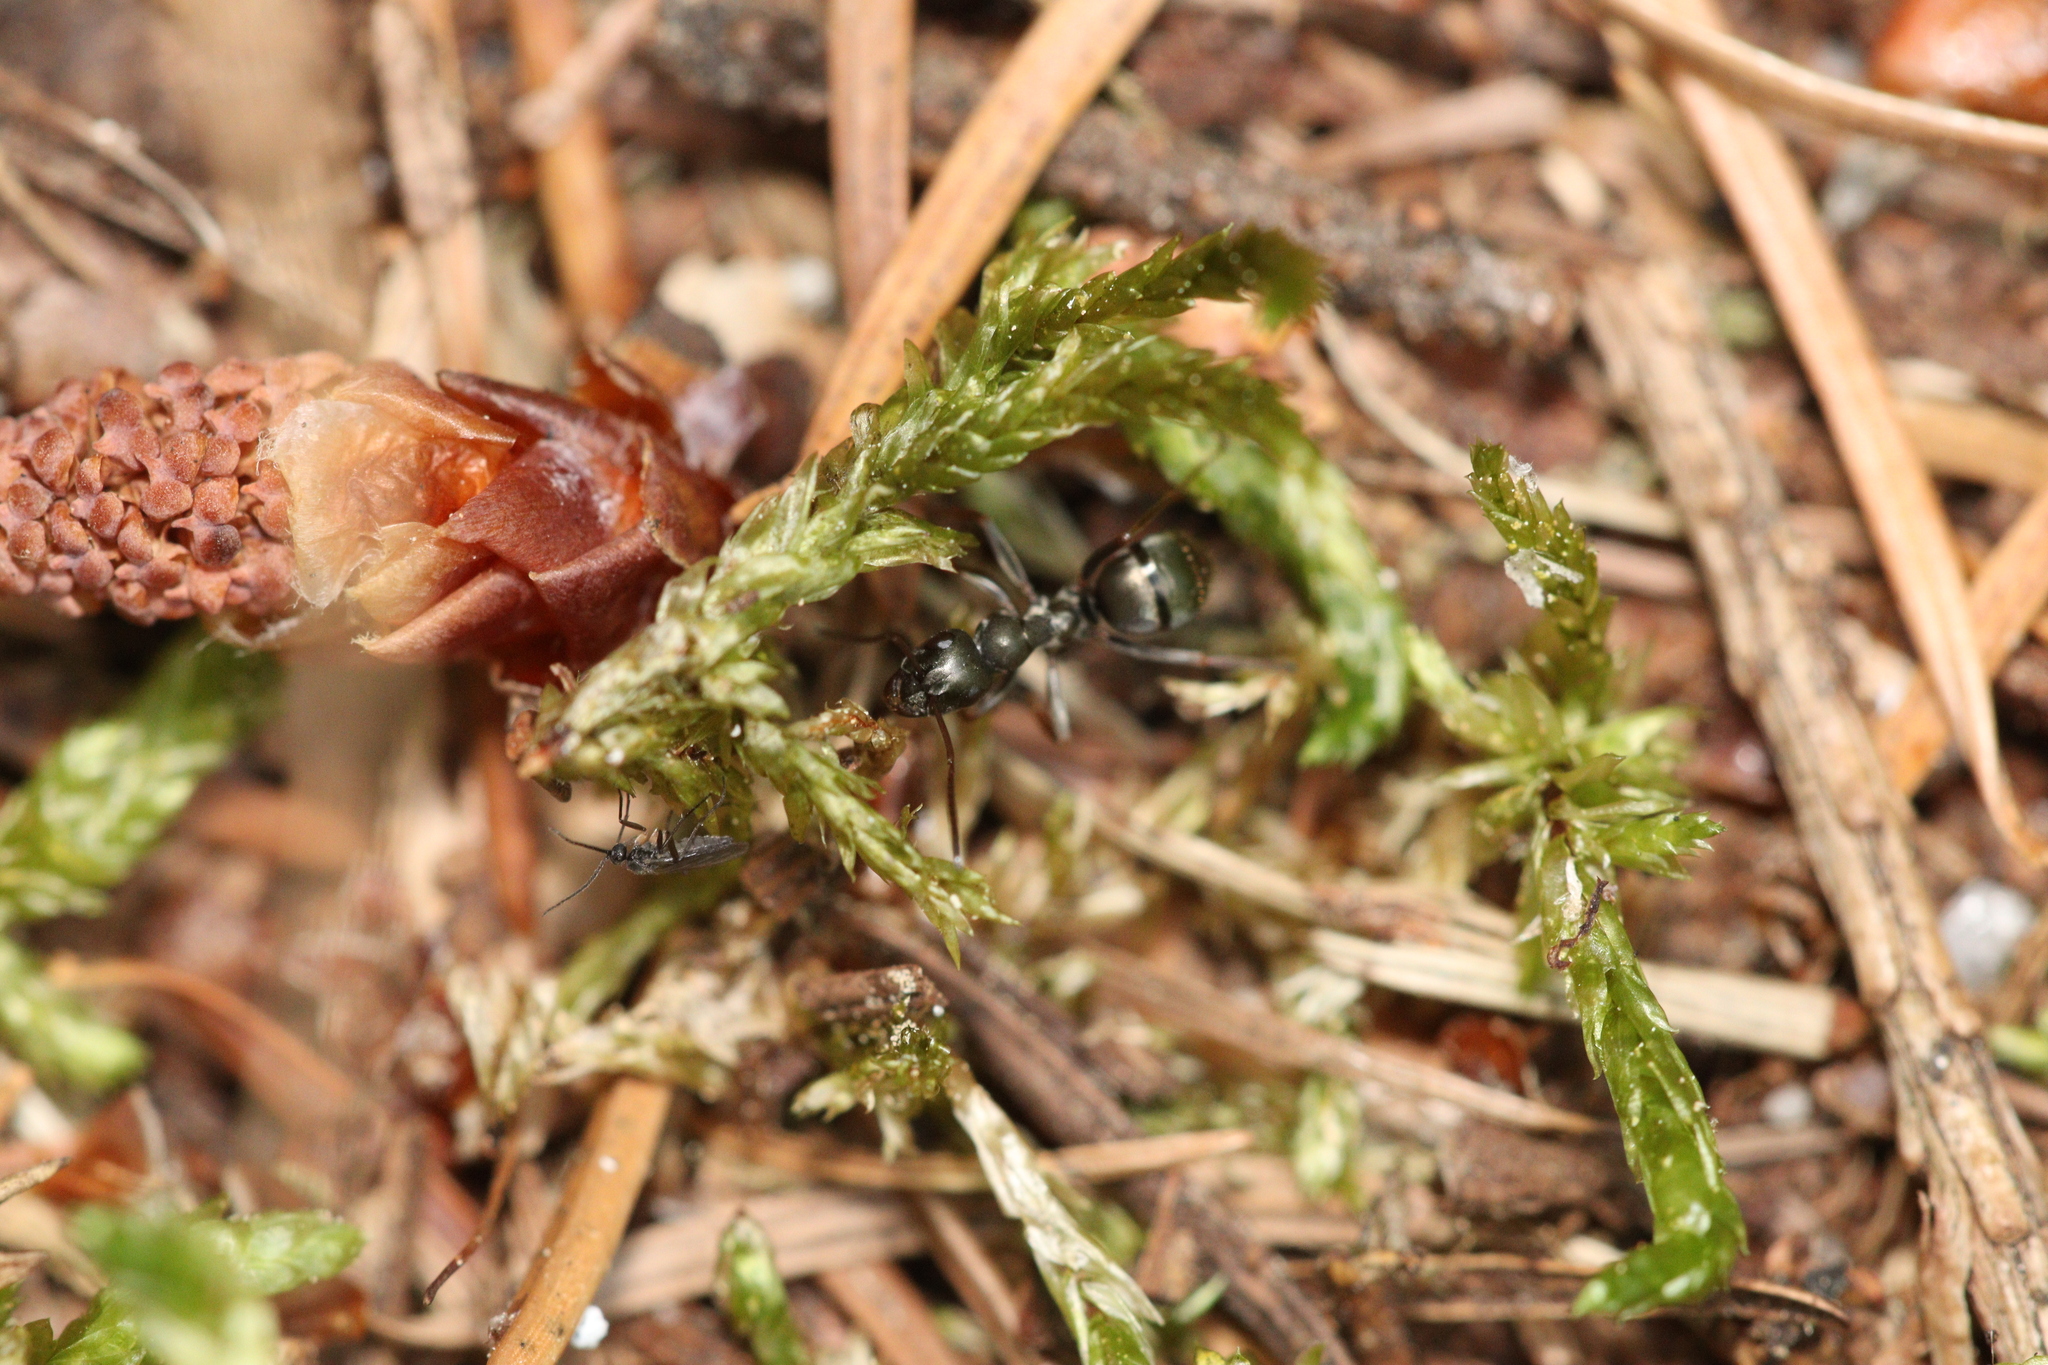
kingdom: Animalia
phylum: Arthropoda
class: Insecta
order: Hymenoptera
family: Formicidae
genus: Formica
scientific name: Formica fusca
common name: Silky ant
